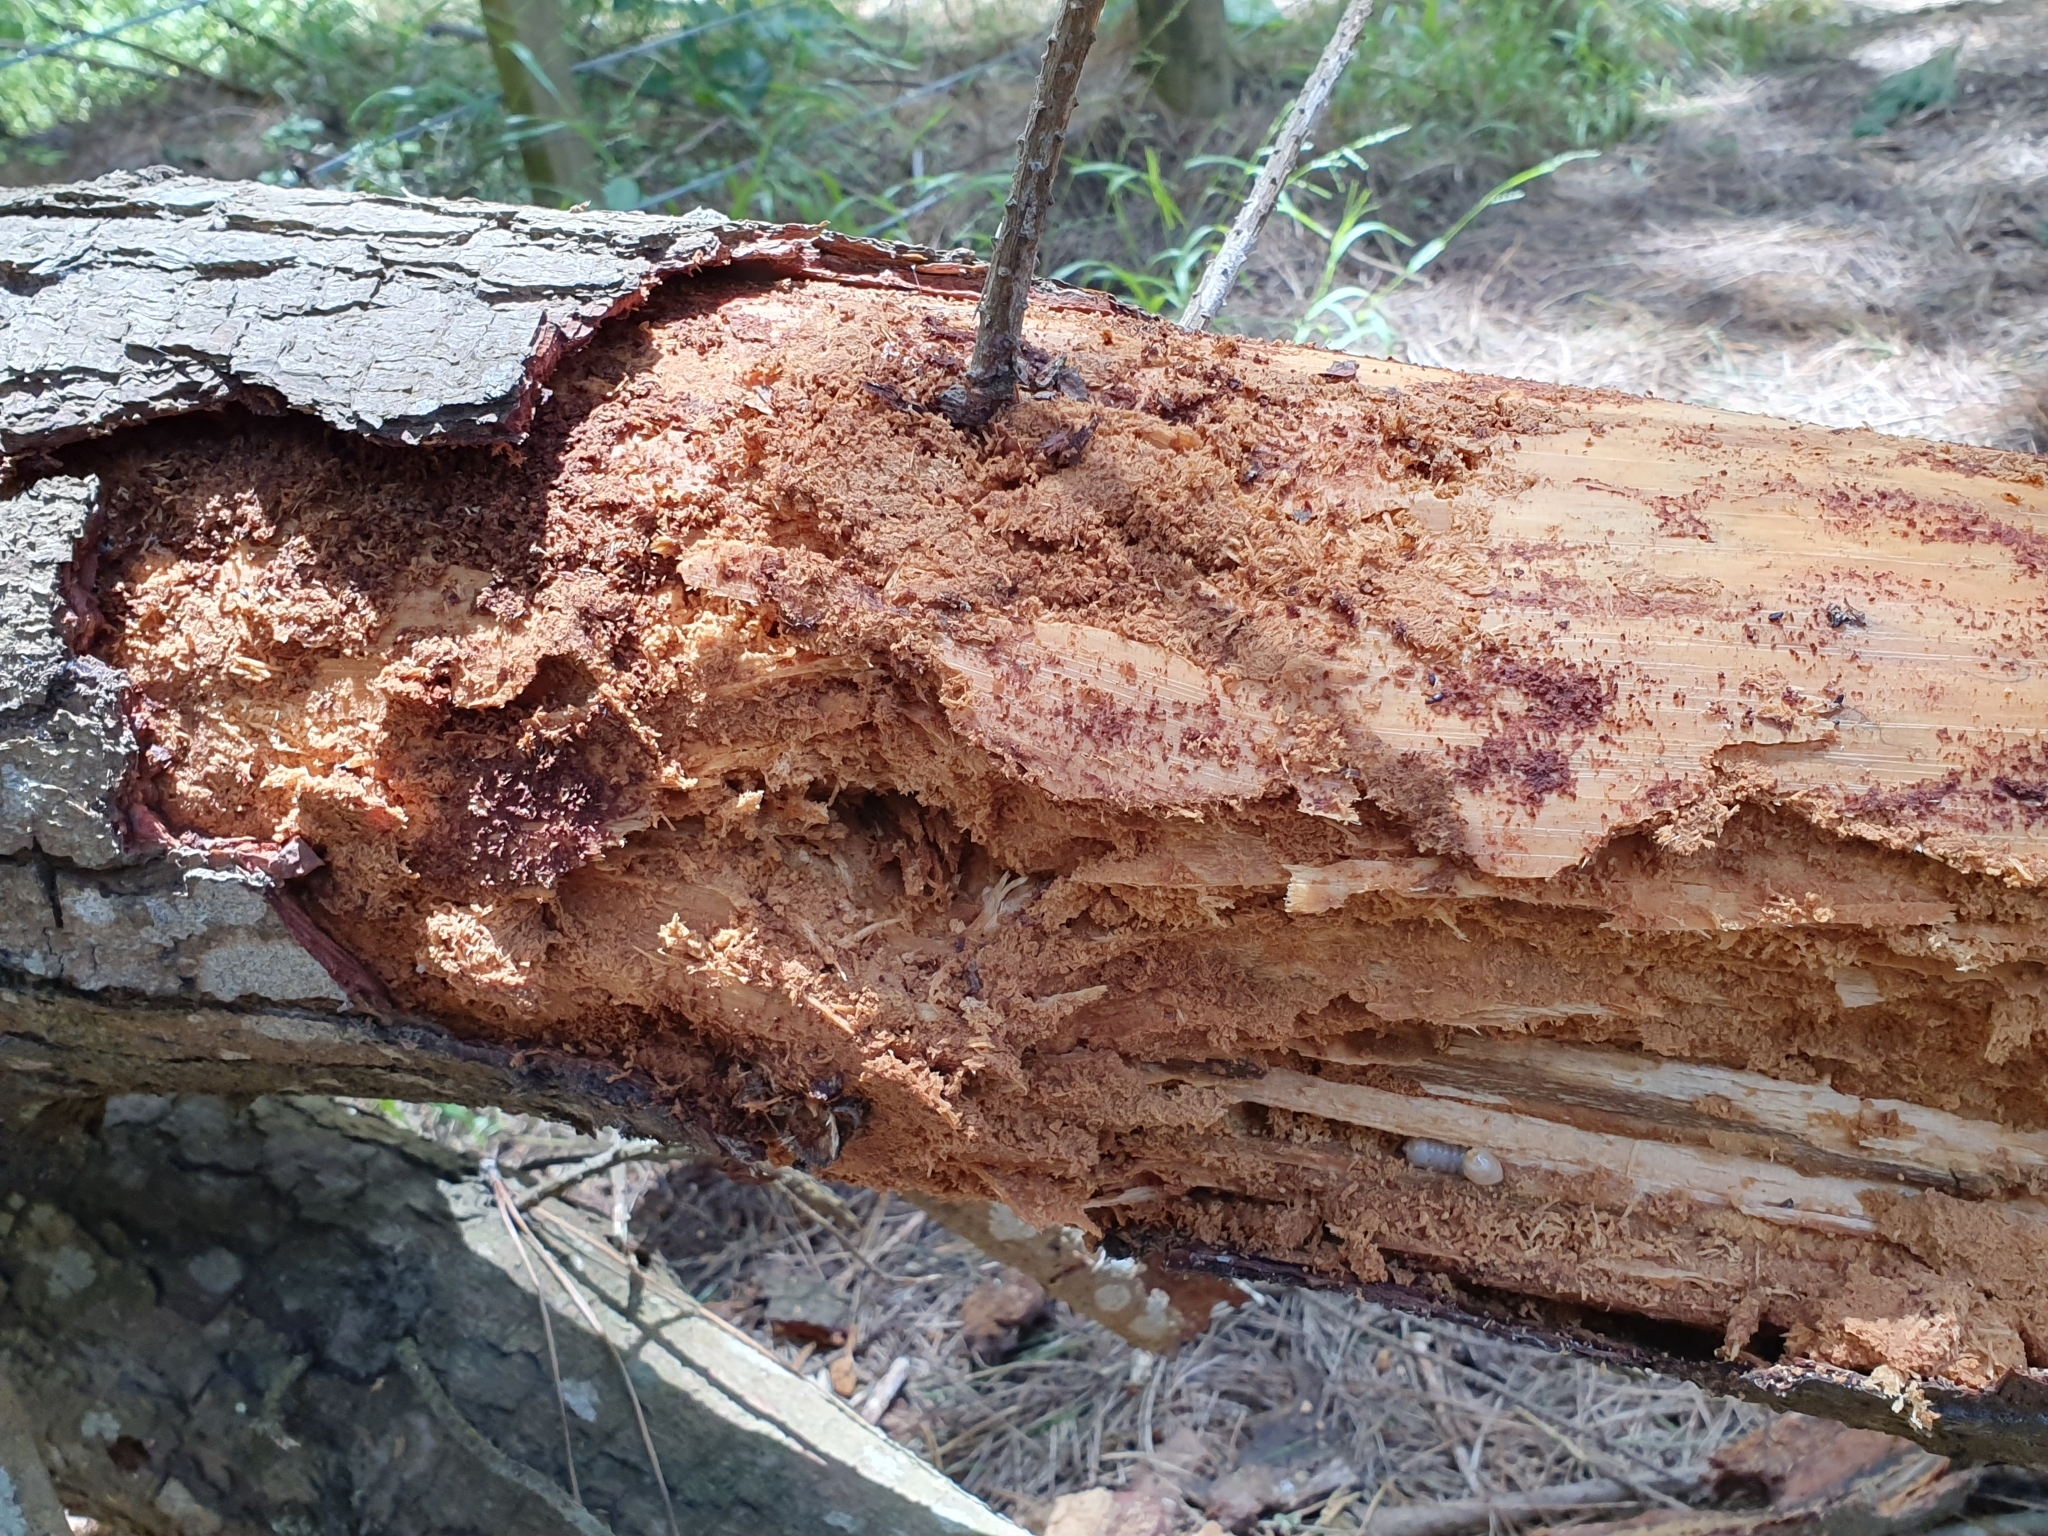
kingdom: Animalia
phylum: Arthropoda
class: Insecta
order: Coleoptera
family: Cerambycidae
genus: Prionoplus
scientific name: Prionoplus reticularis
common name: Huhu beetle
